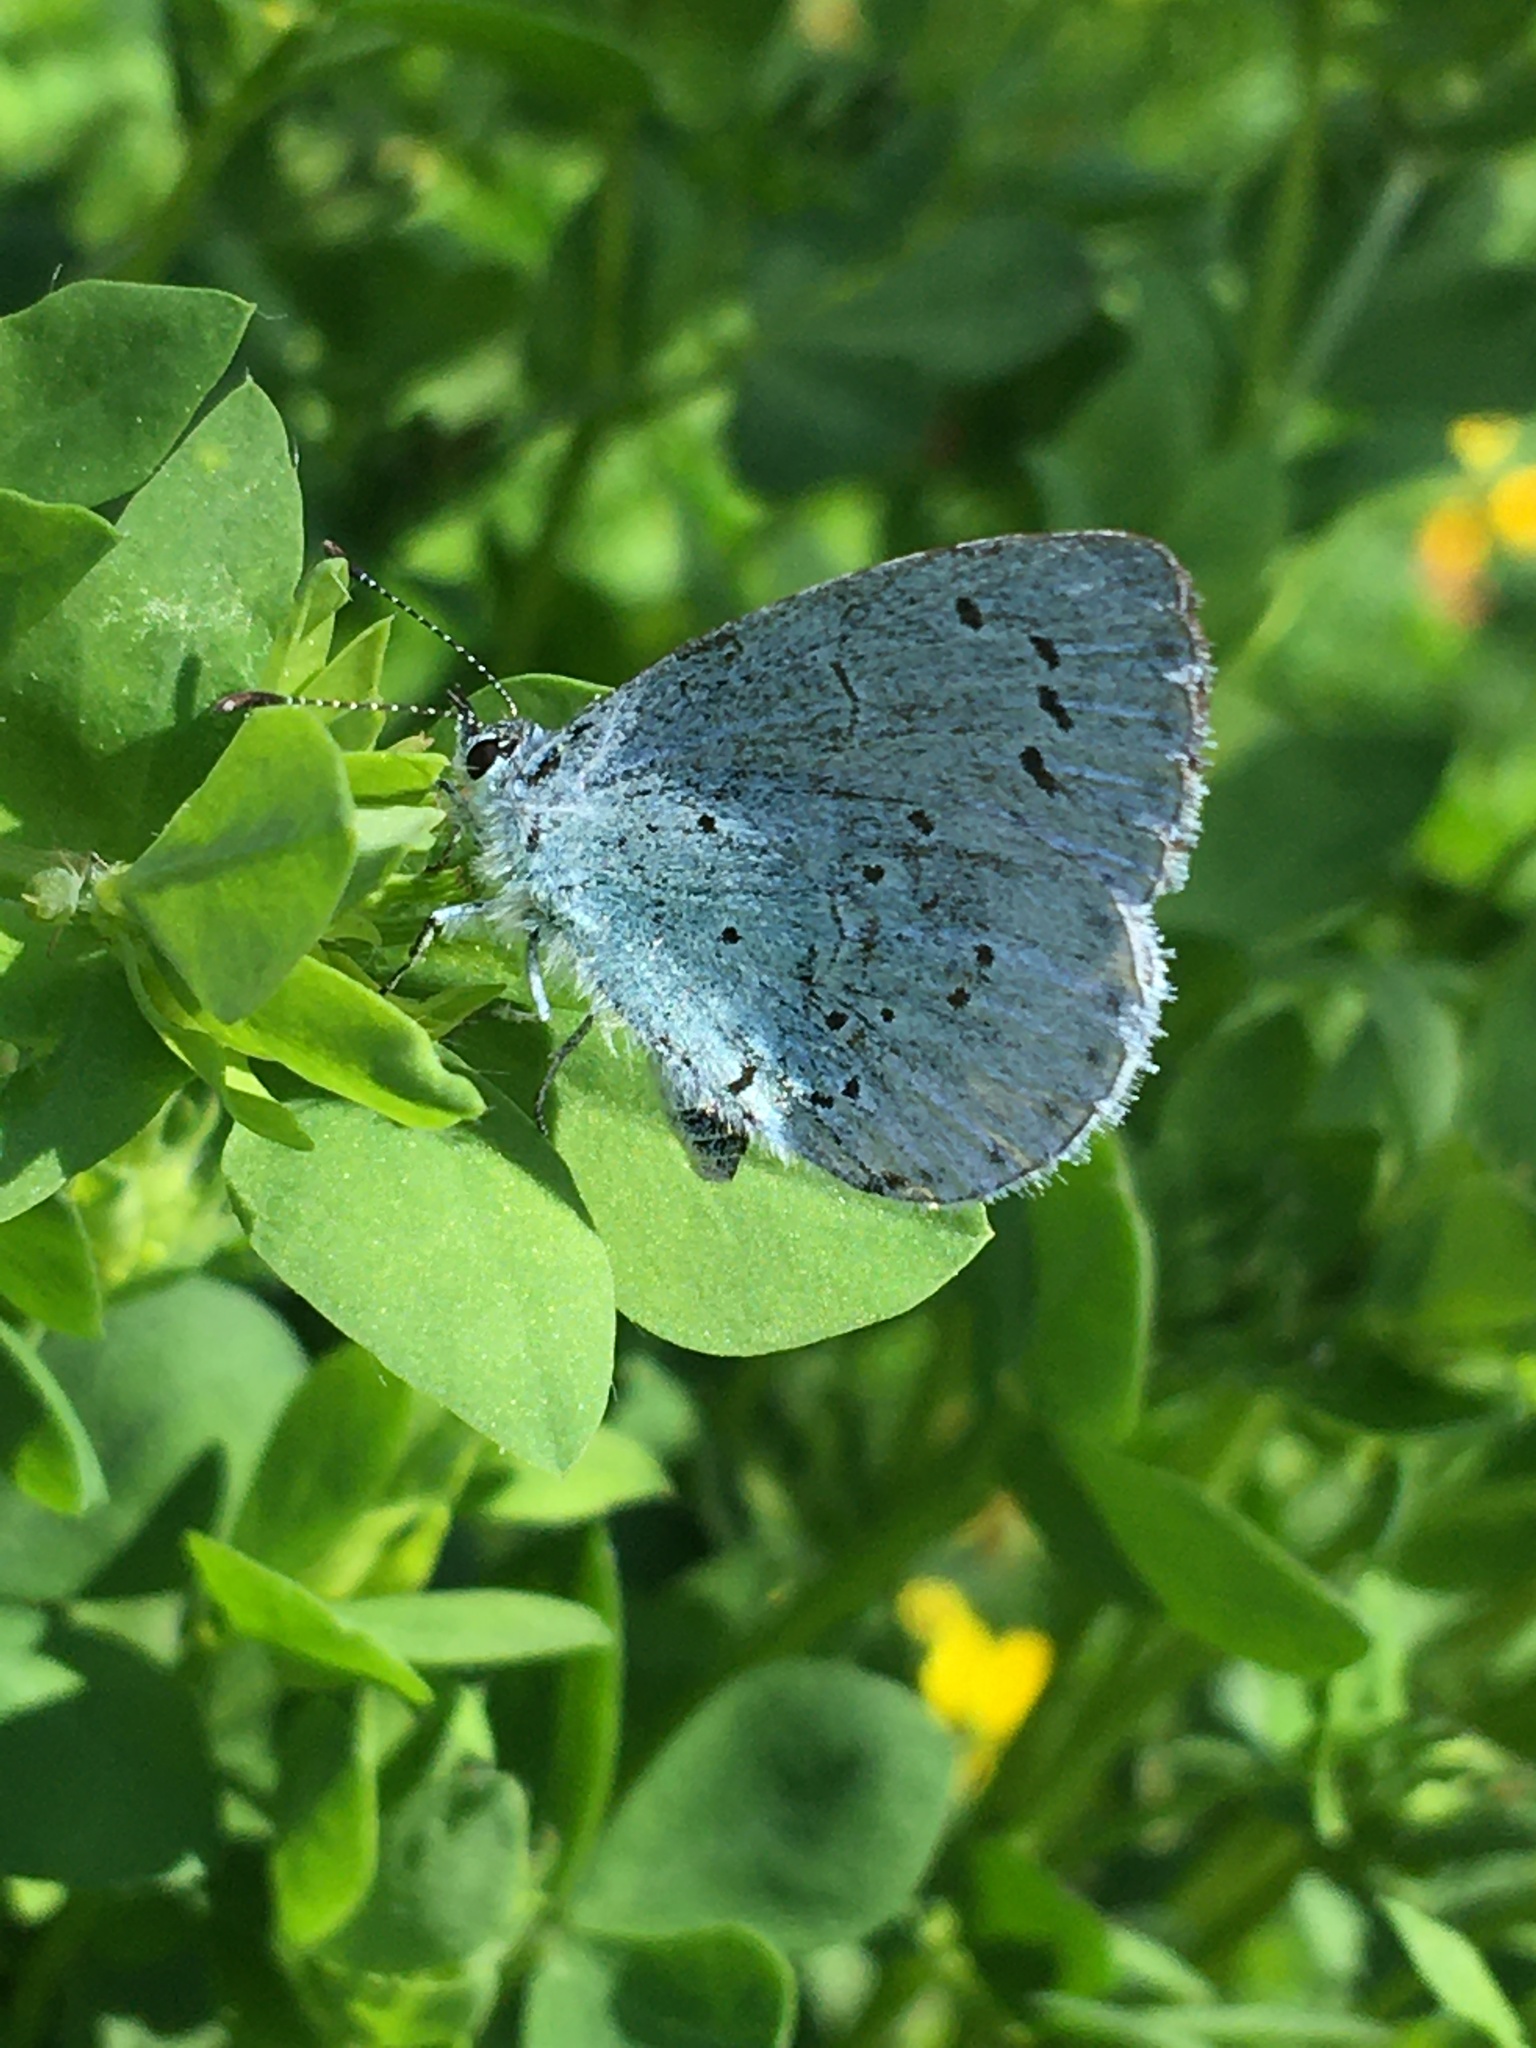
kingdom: Animalia
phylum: Arthropoda
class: Insecta
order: Lepidoptera
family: Lycaenidae
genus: Celastrina
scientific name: Celastrina argiolus
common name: Holly blue
